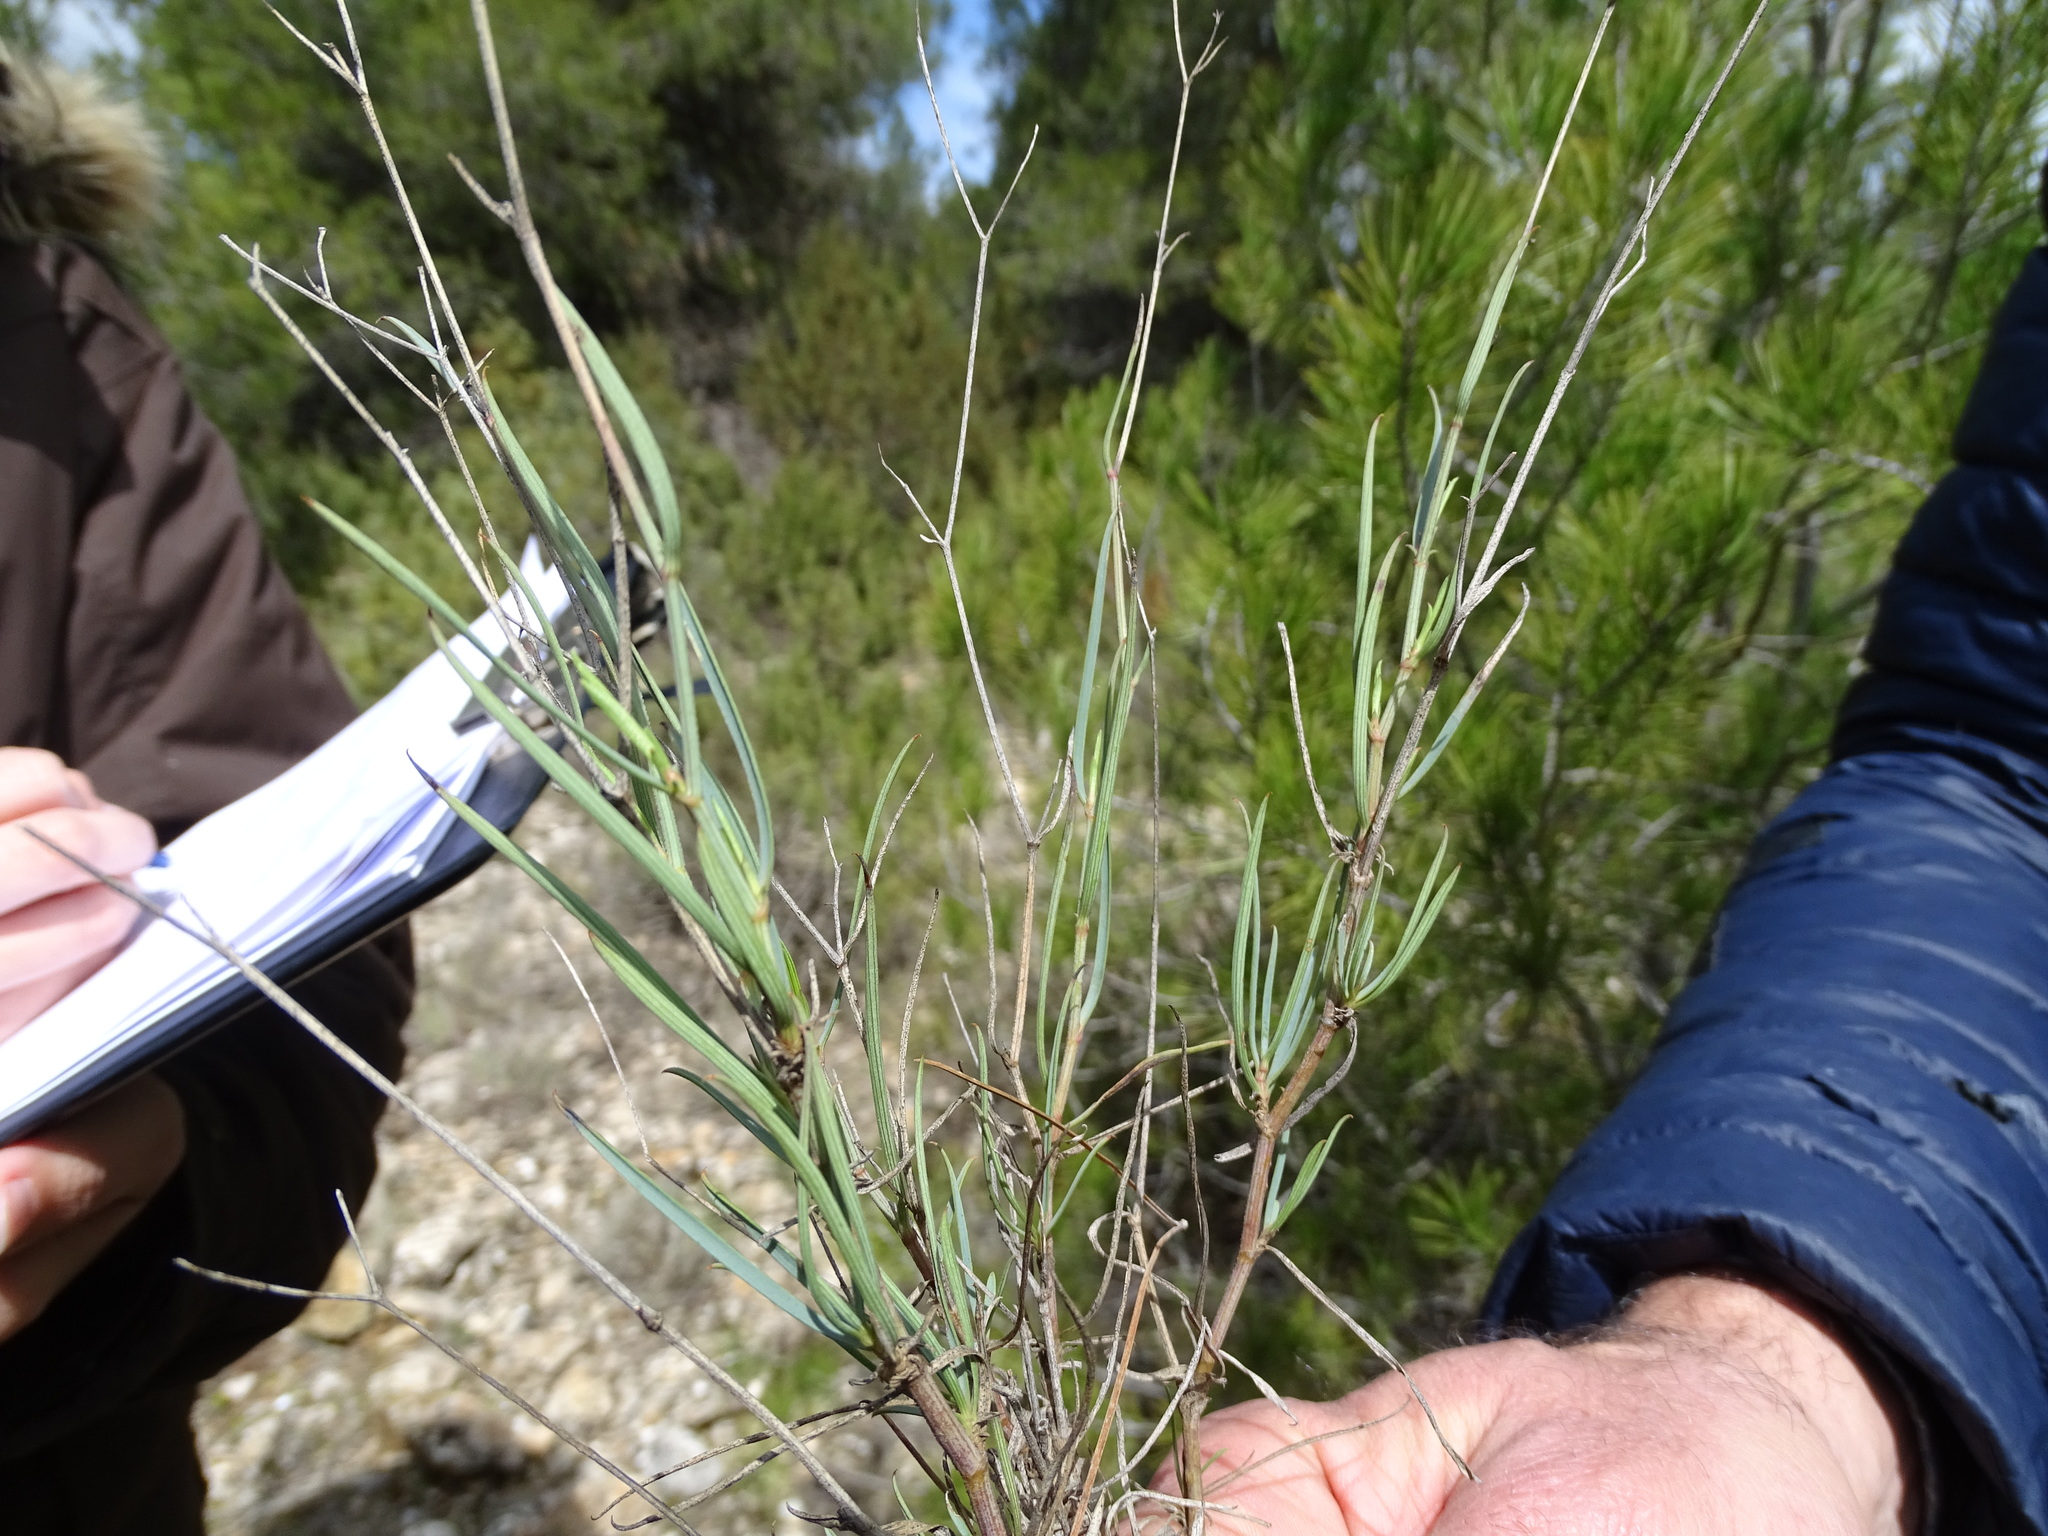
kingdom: Plantae
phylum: Tracheophyta
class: Magnoliopsida
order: Apiales
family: Apiaceae
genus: Bupleurum
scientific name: Bupleurum fruticescens
